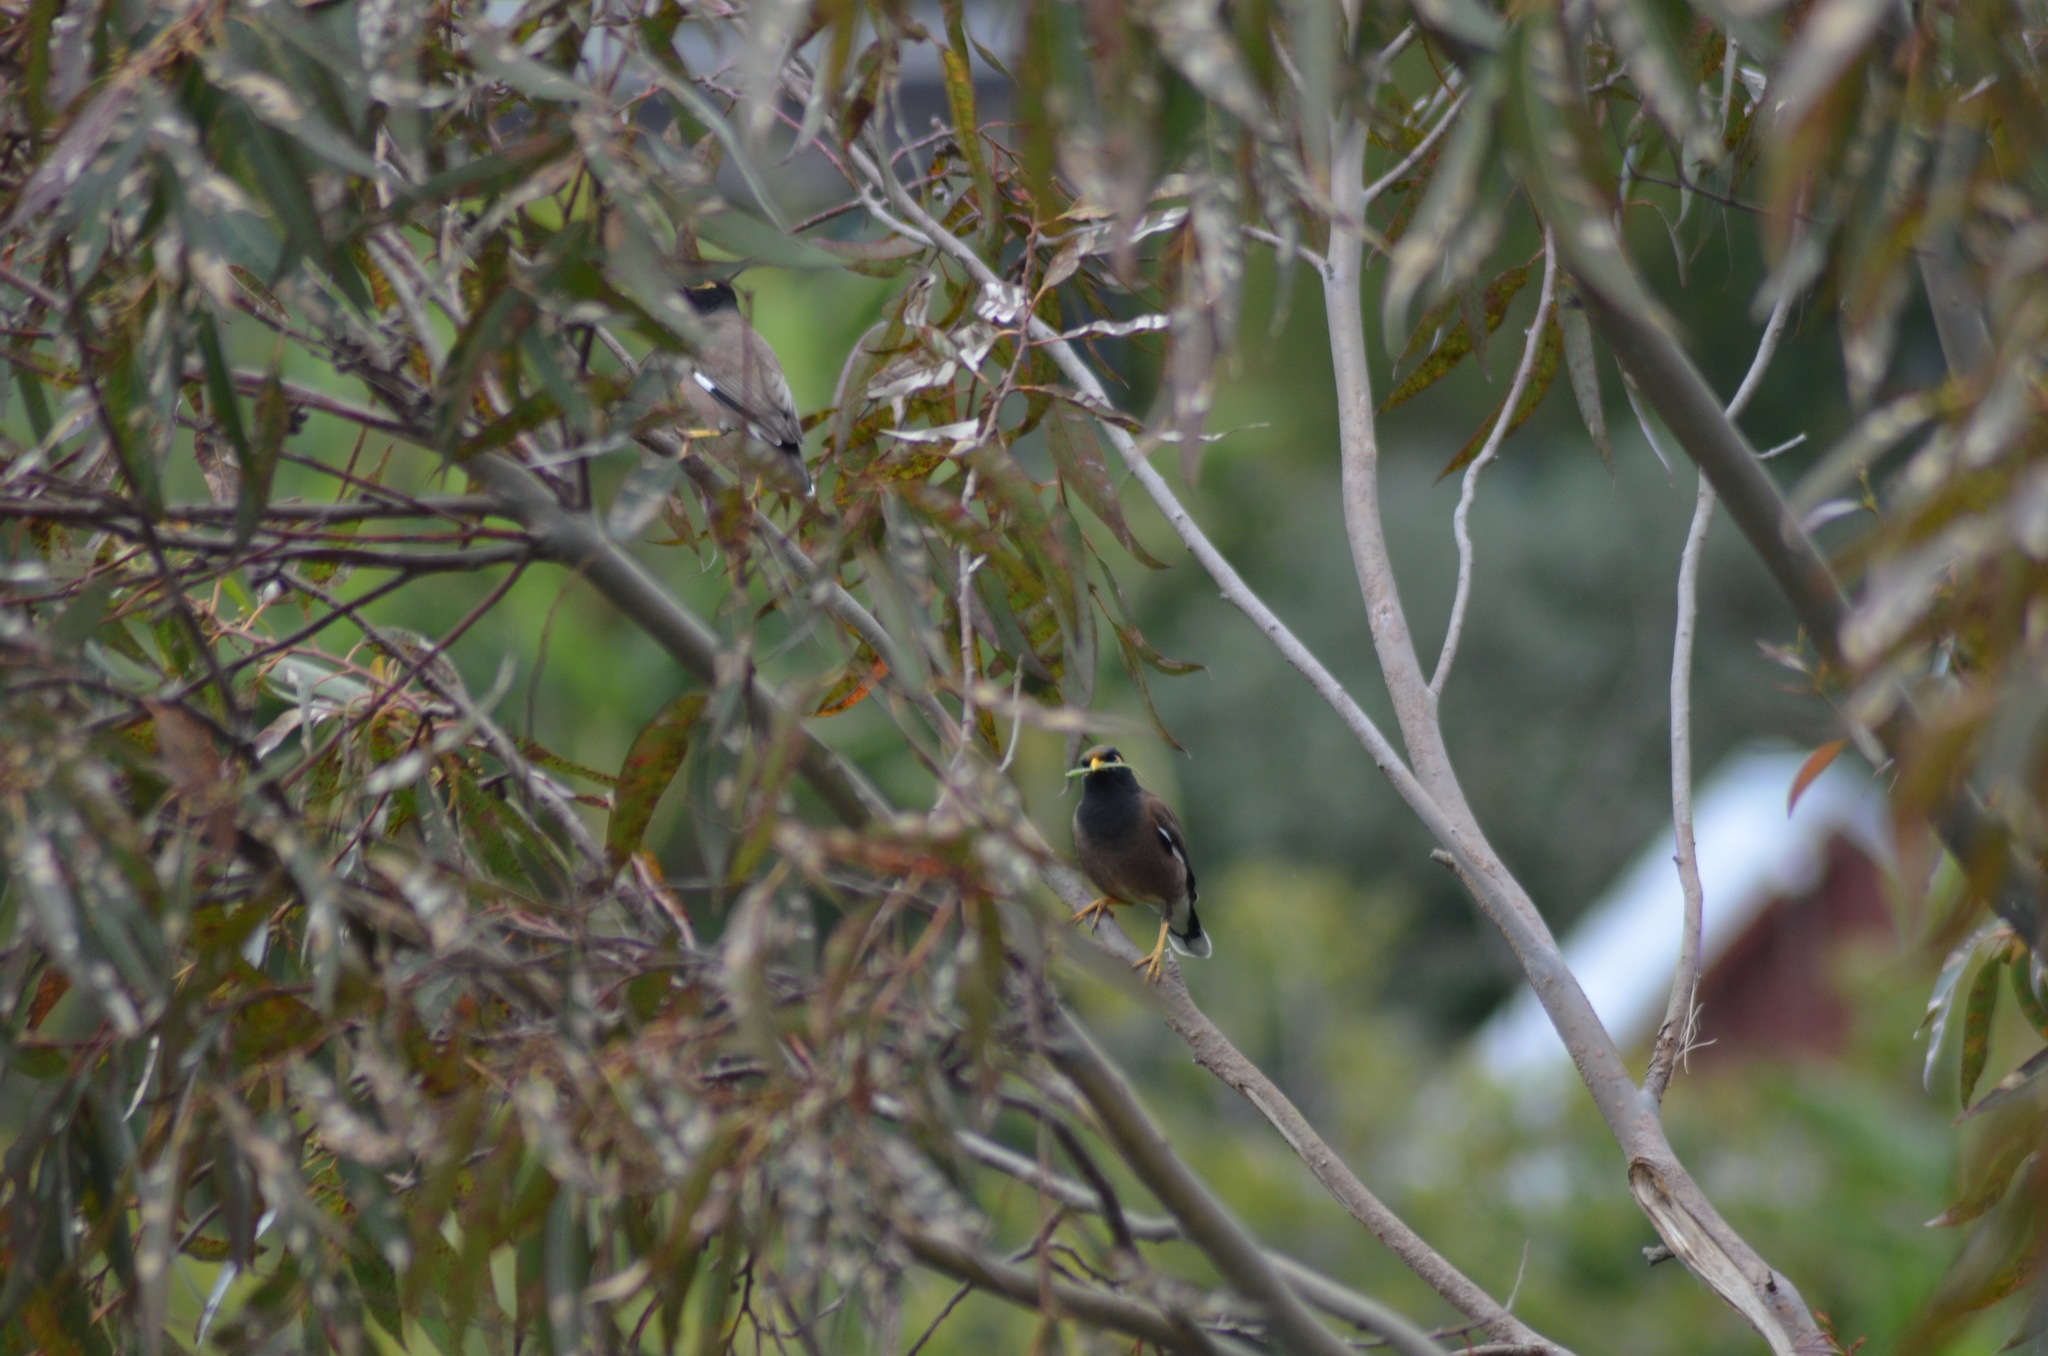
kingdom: Animalia
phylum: Chordata
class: Aves
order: Passeriformes
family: Sturnidae
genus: Acridotheres
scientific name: Acridotheres tristis
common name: Common myna
